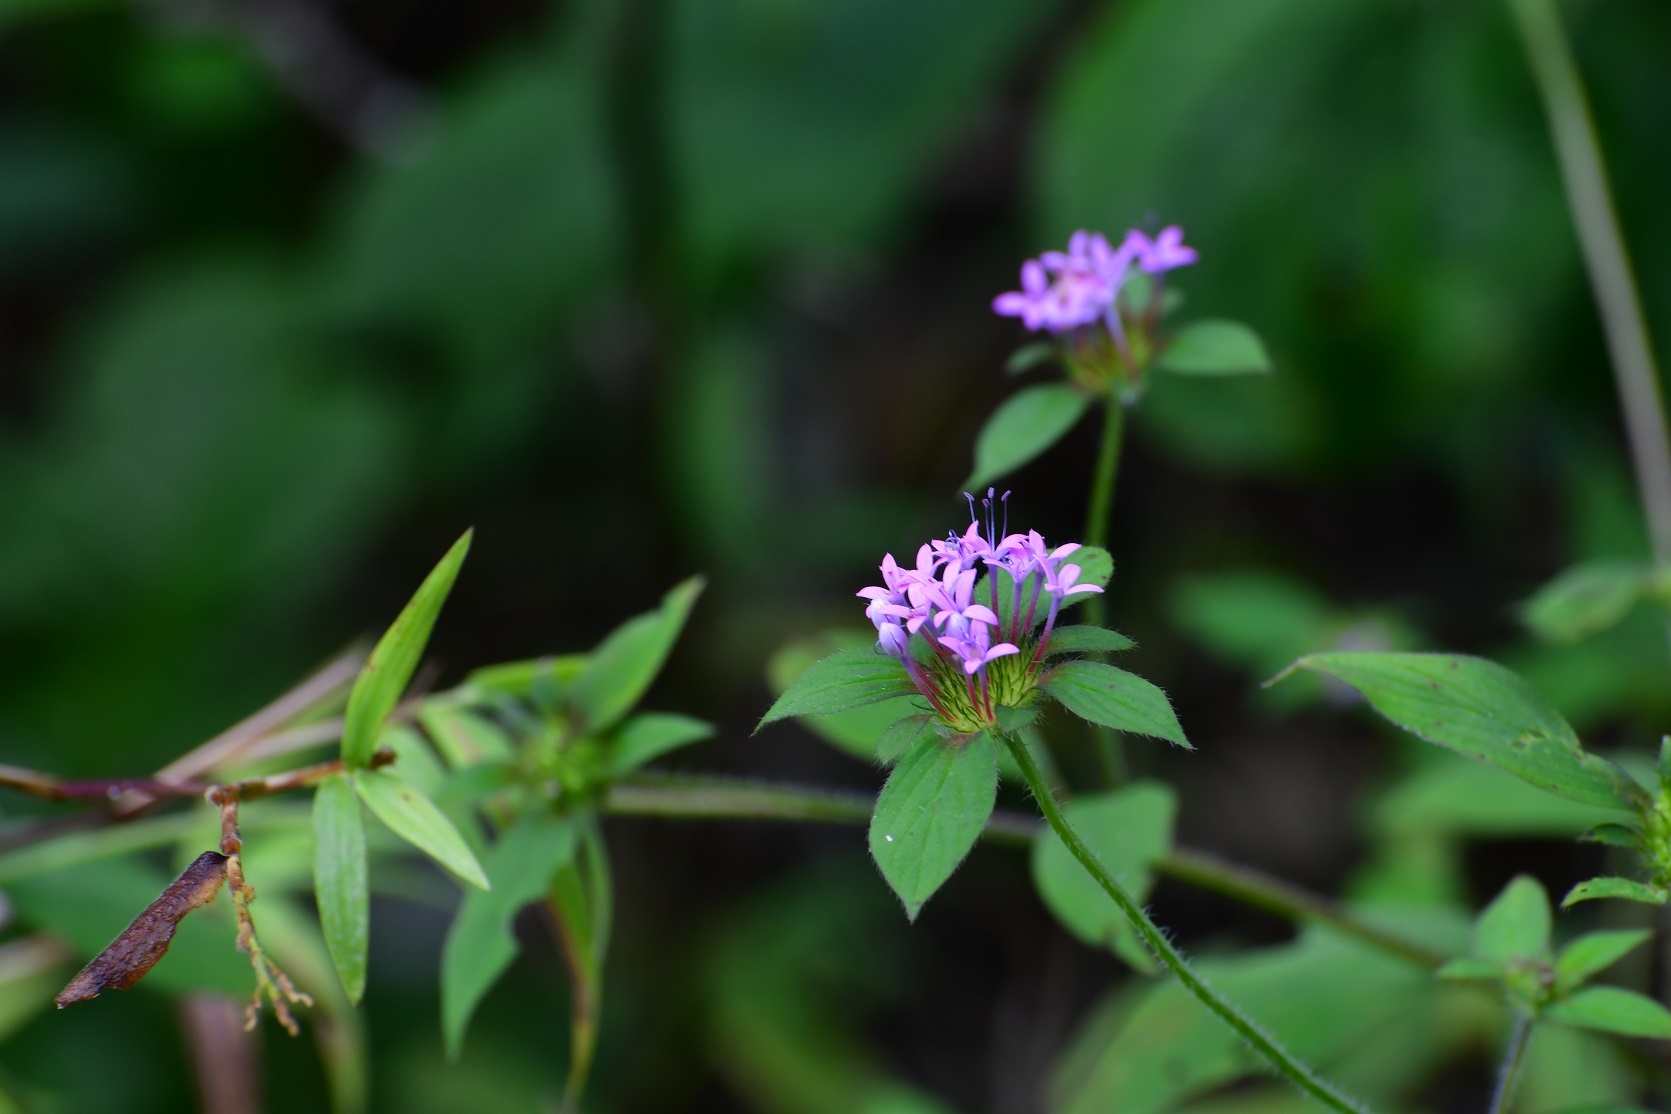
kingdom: Plantae
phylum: Tracheophyta
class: Magnoliopsida
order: Gentianales
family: Rubiaceae
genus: Crusea
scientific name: Crusea longiflora
